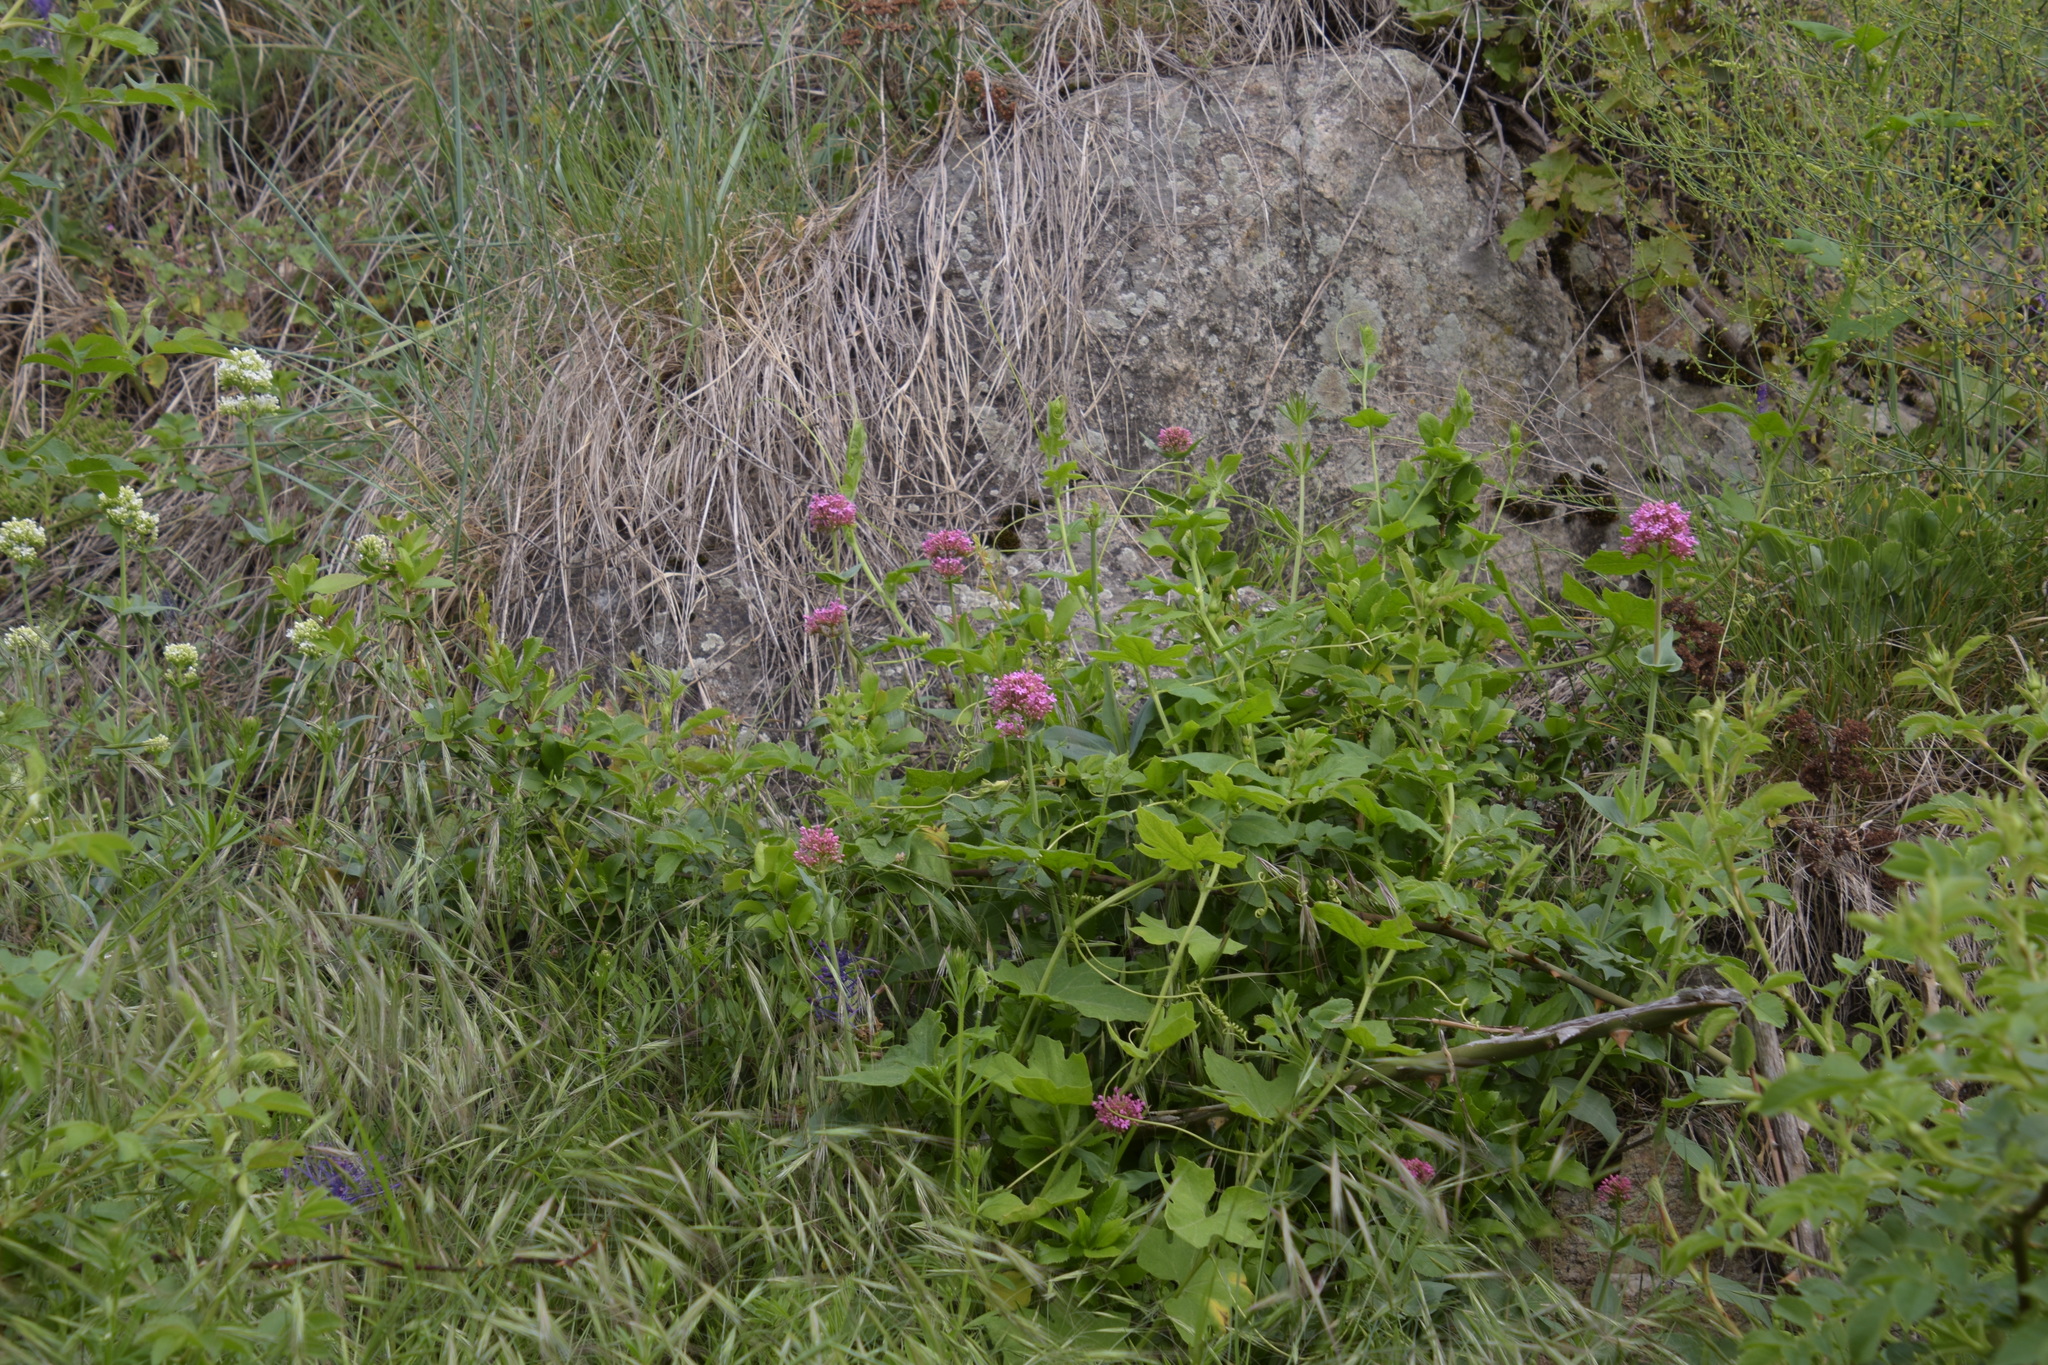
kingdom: Plantae
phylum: Tracheophyta
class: Magnoliopsida
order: Dipsacales
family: Caprifoliaceae
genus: Centranthus
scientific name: Centranthus ruber
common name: Red valerian
